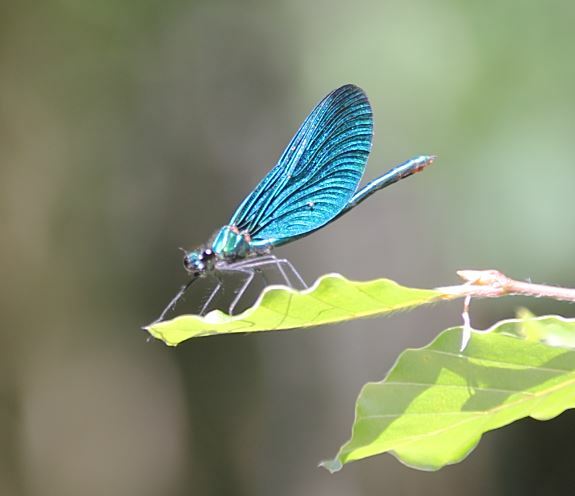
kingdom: Animalia
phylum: Arthropoda
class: Insecta
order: Odonata
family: Calopterygidae
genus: Calopteryx
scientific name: Calopteryx virgo
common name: Beautiful demoiselle
